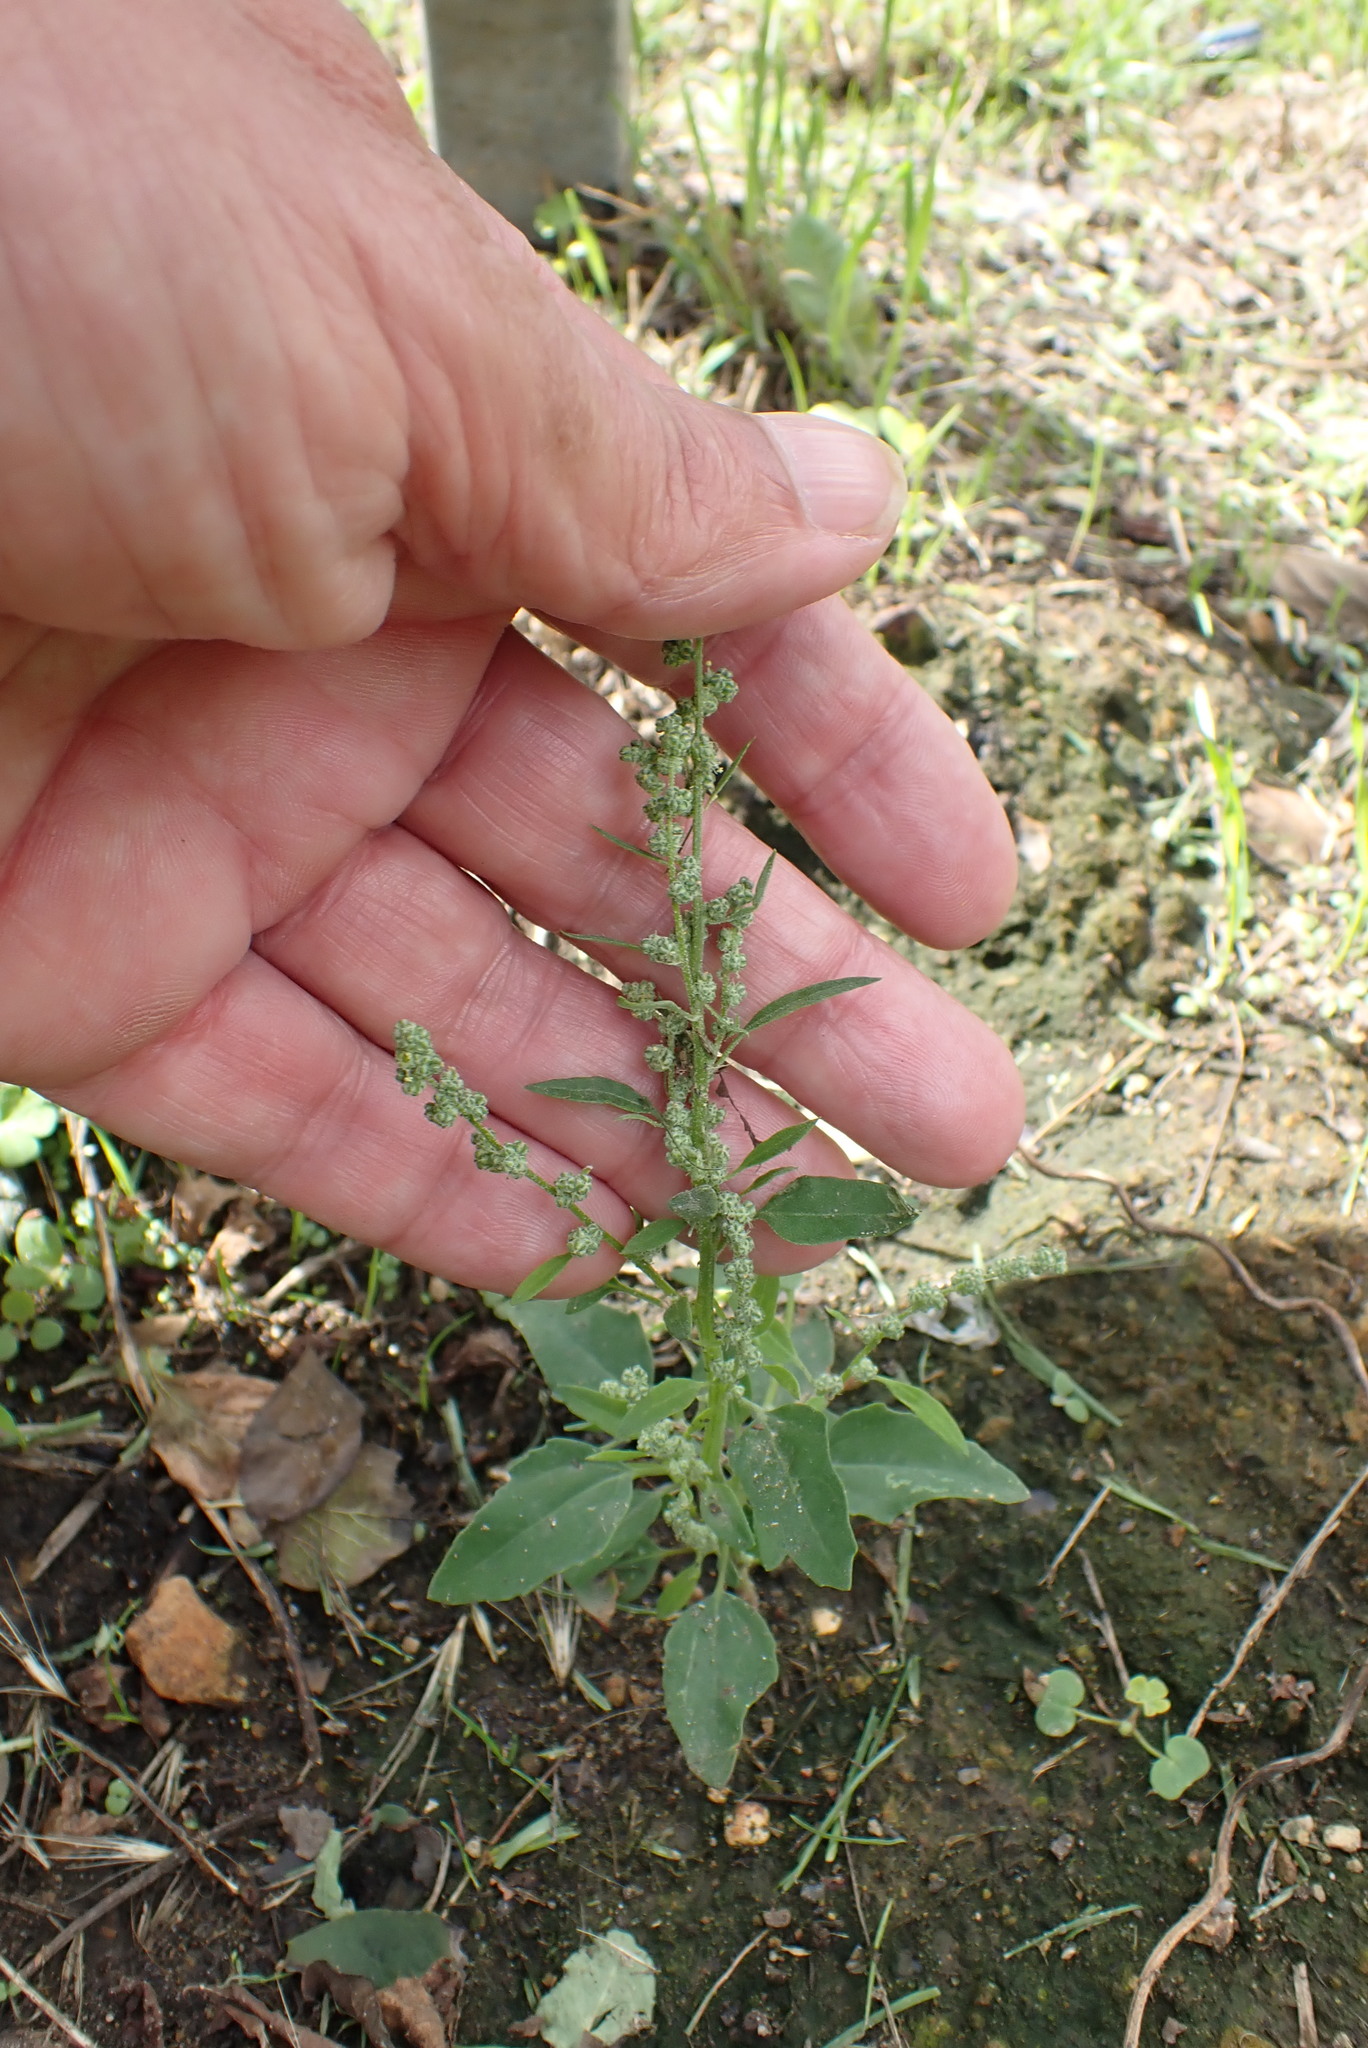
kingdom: Plantae
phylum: Tracheophyta
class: Magnoliopsida
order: Caryophyllales
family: Amaranthaceae
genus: Chenopodium
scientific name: Chenopodium album
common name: Fat-hen
